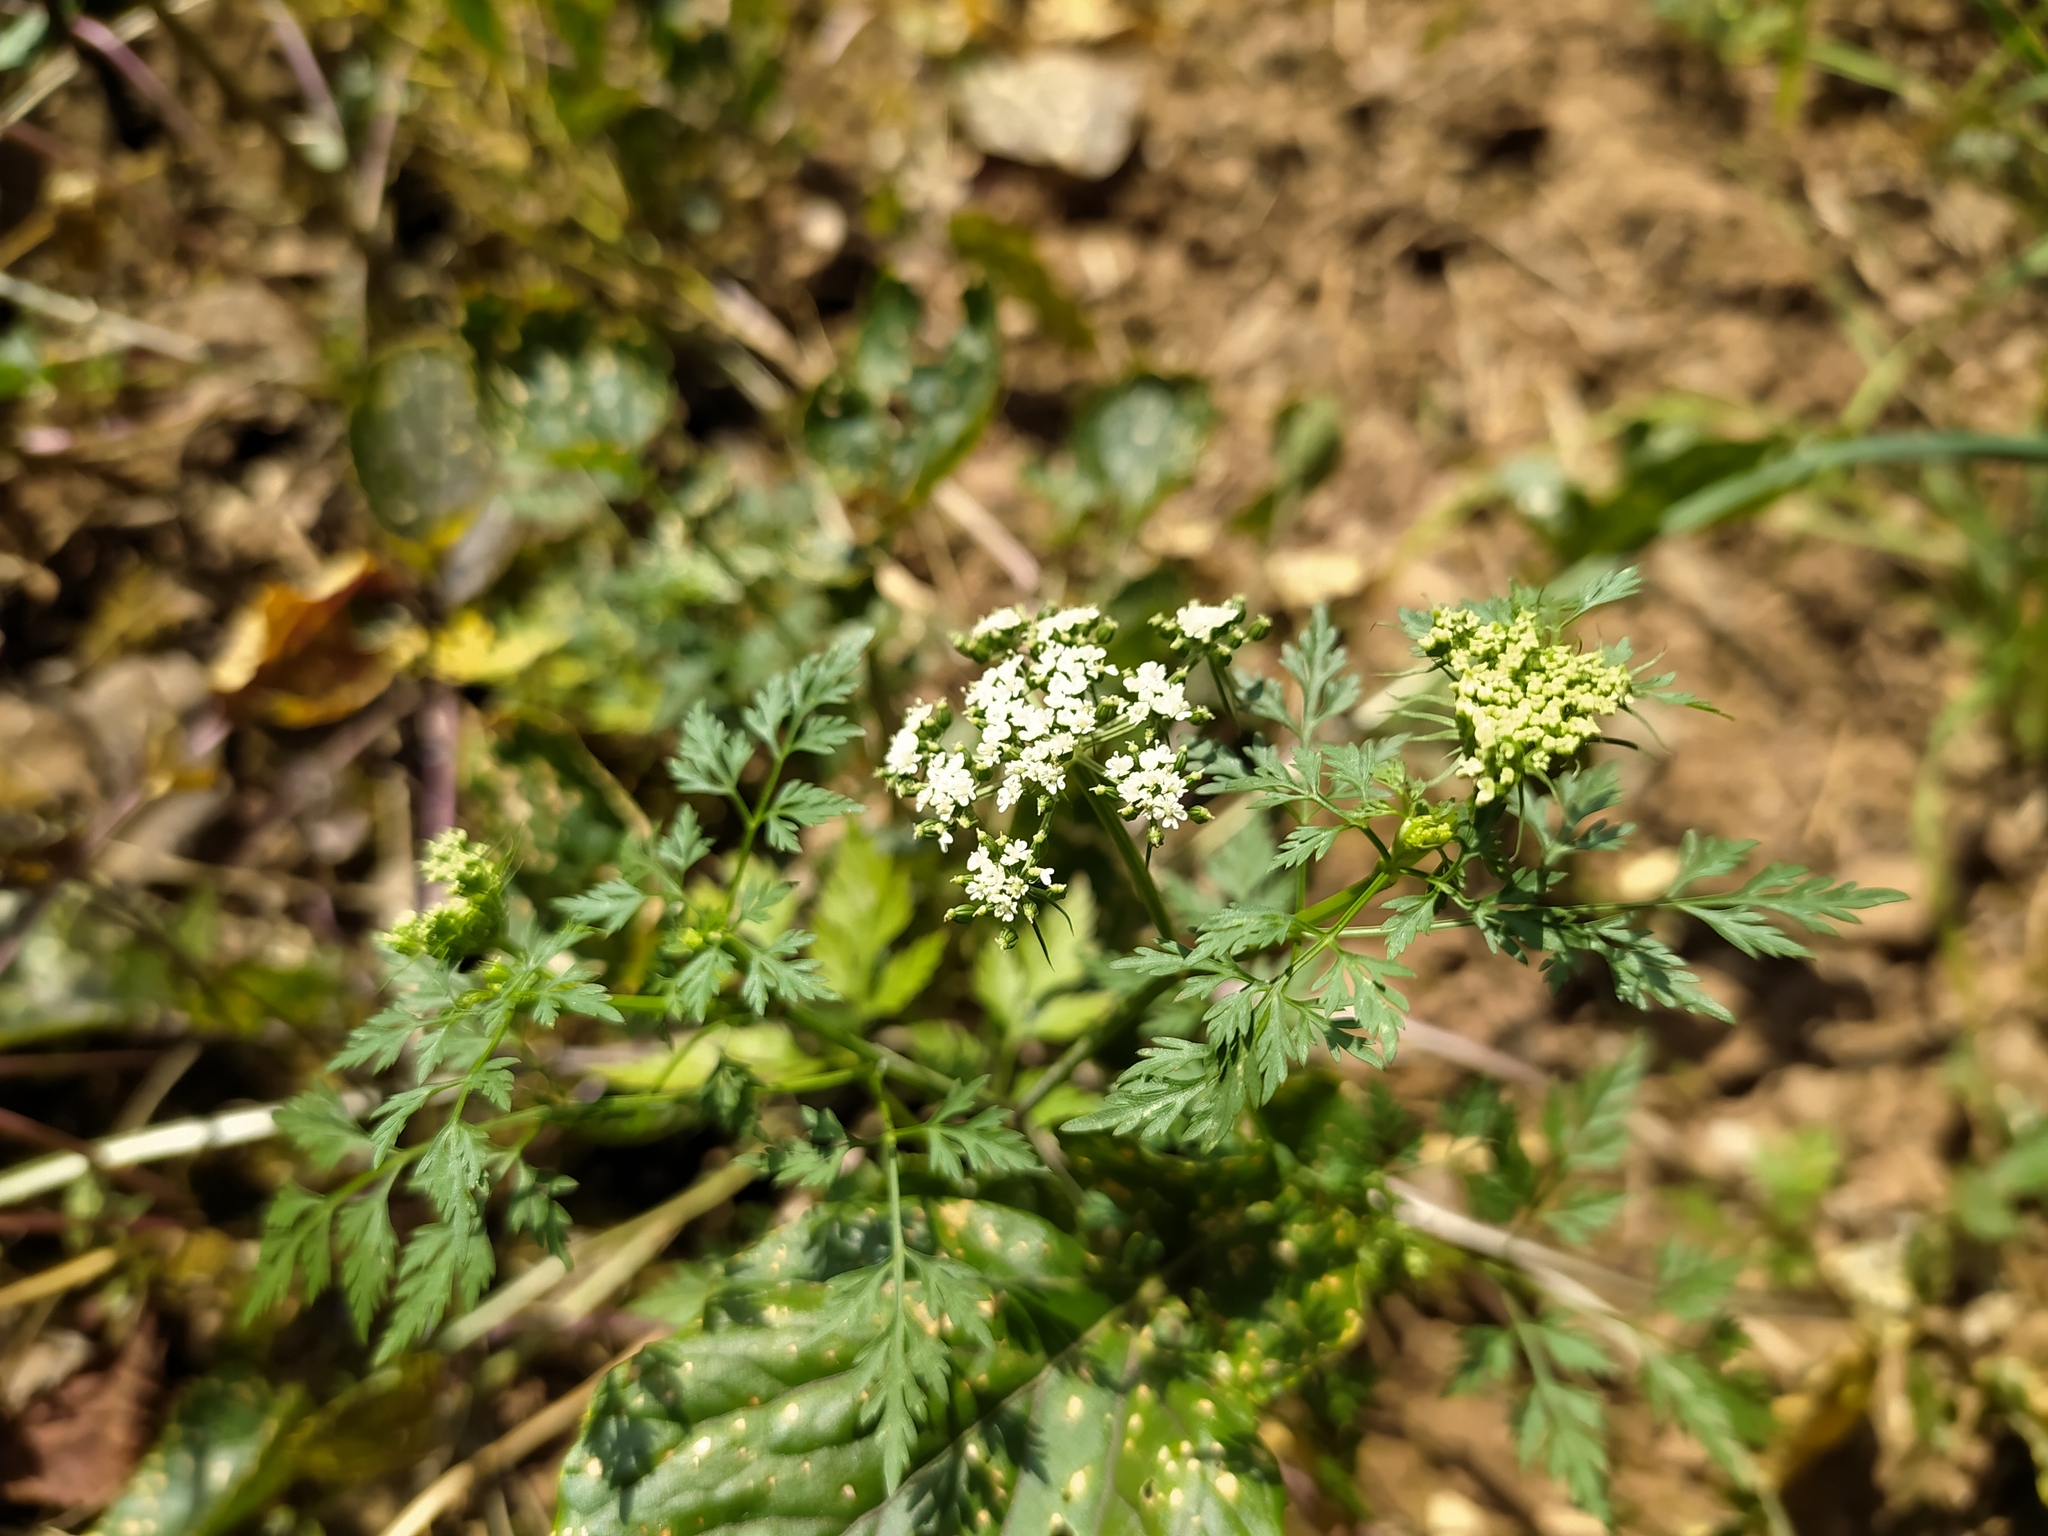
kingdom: Plantae
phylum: Tracheophyta
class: Magnoliopsida
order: Apiales
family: Apiaceae
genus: Aethusa
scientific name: Aethusa cynapium
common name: Fool's parsley
